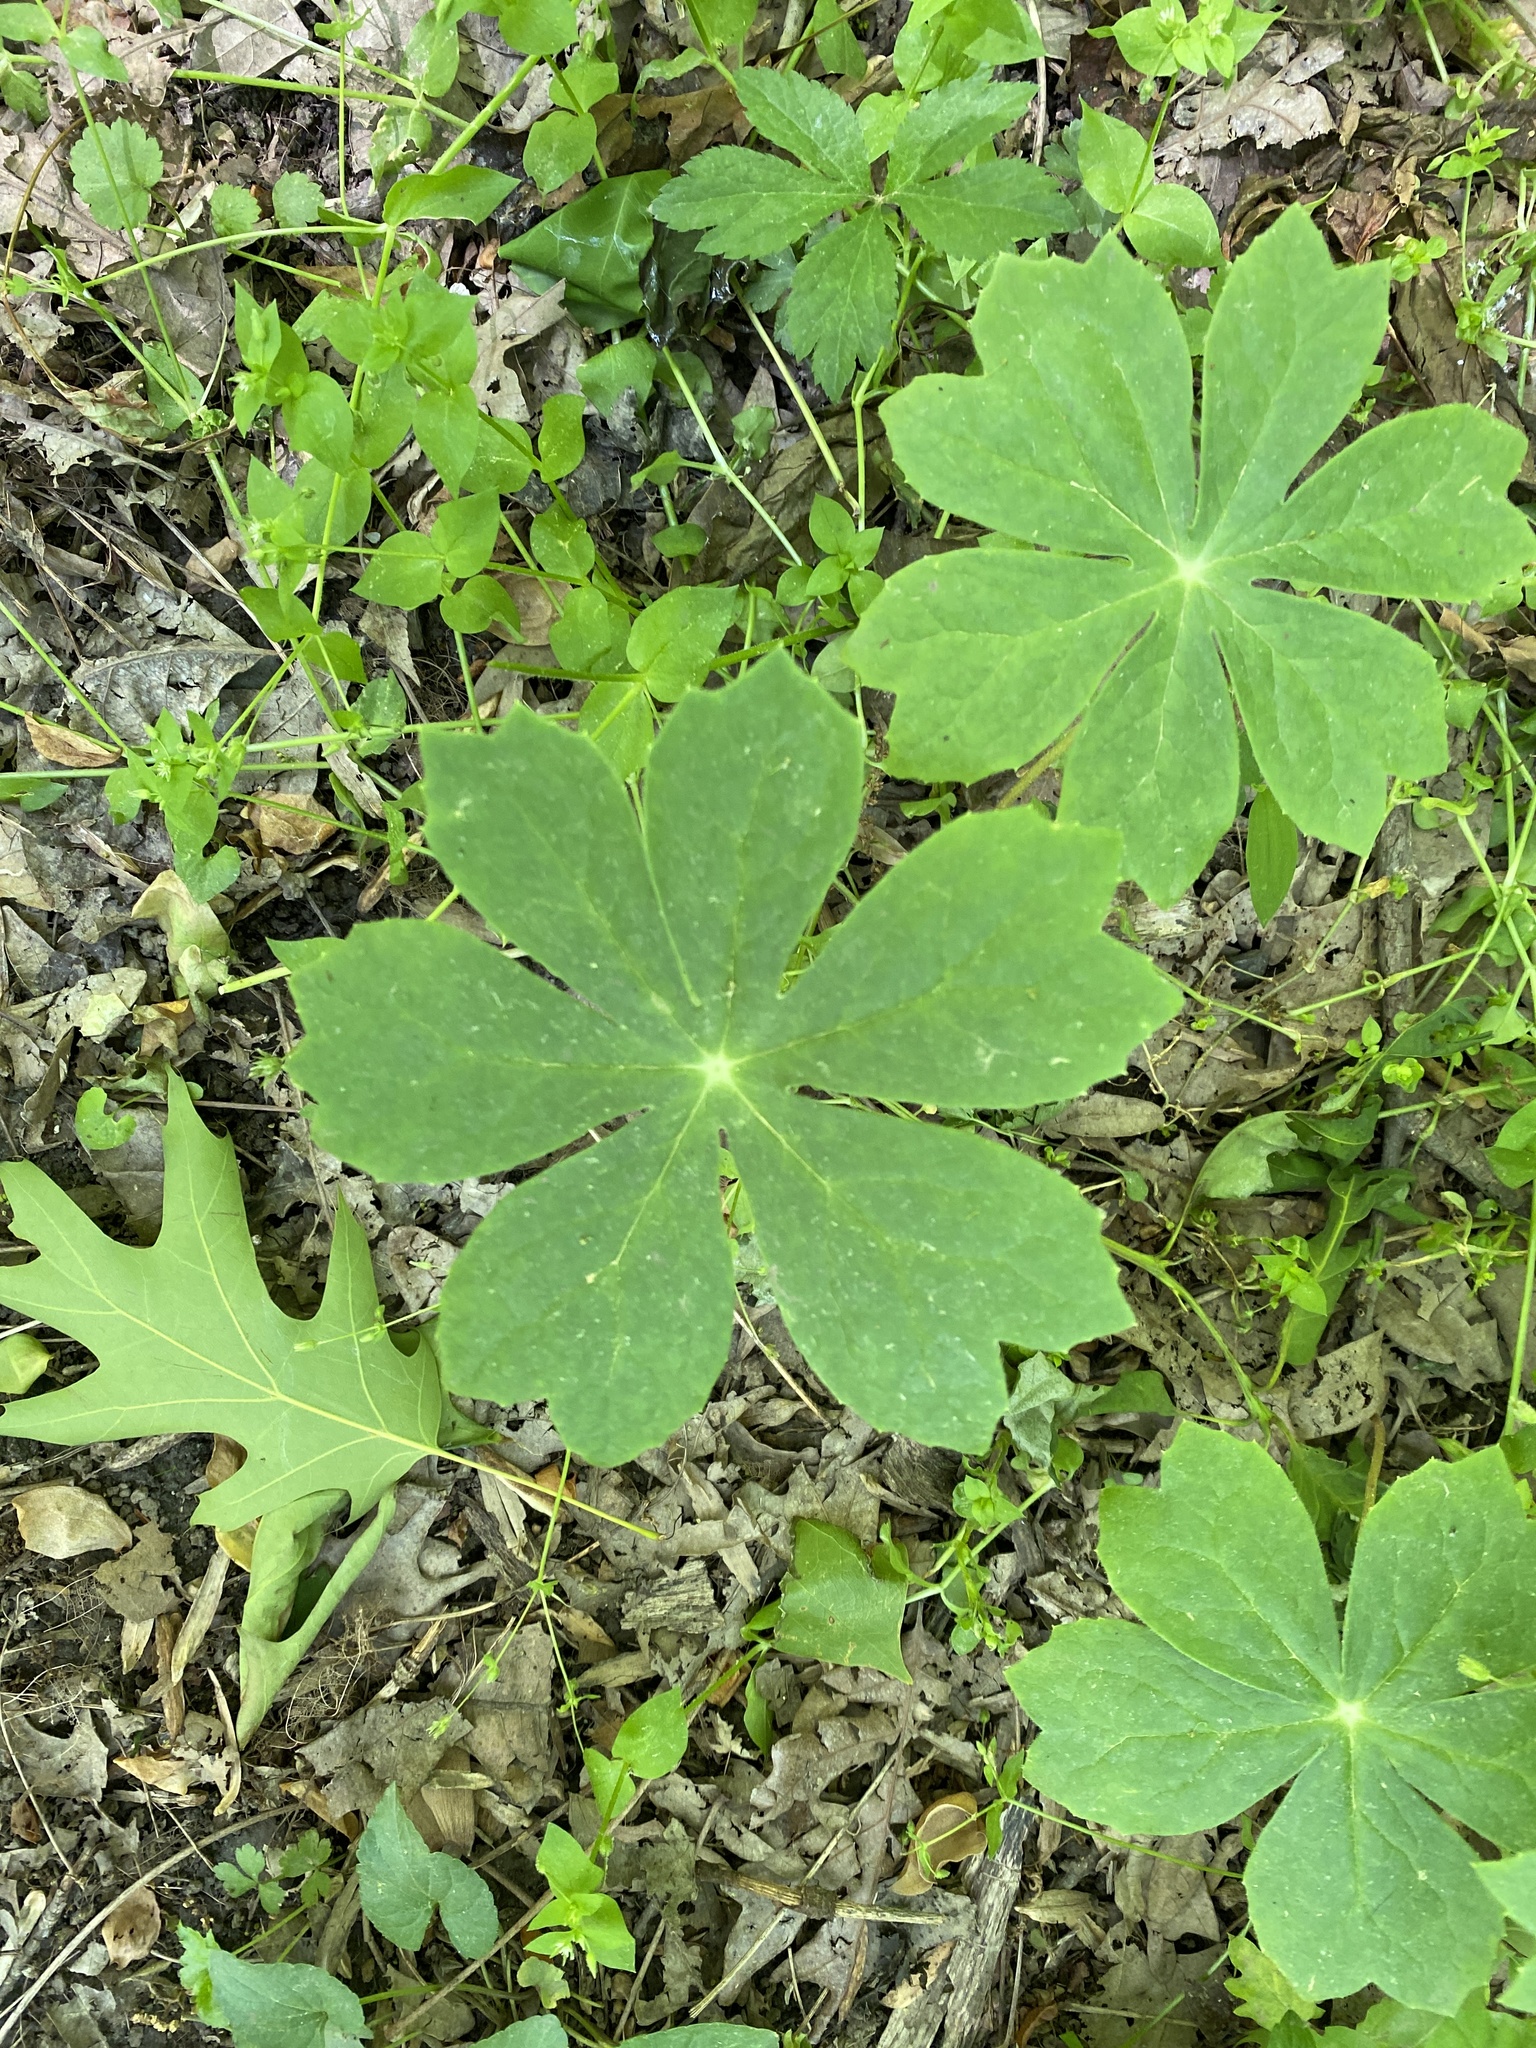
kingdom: Plantae
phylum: Tracheophyta
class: Magnoliopsida
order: Ranunculales
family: Berberidaceae
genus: Podophyllum
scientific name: Podophyllum peltatum
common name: Wild mandrake
